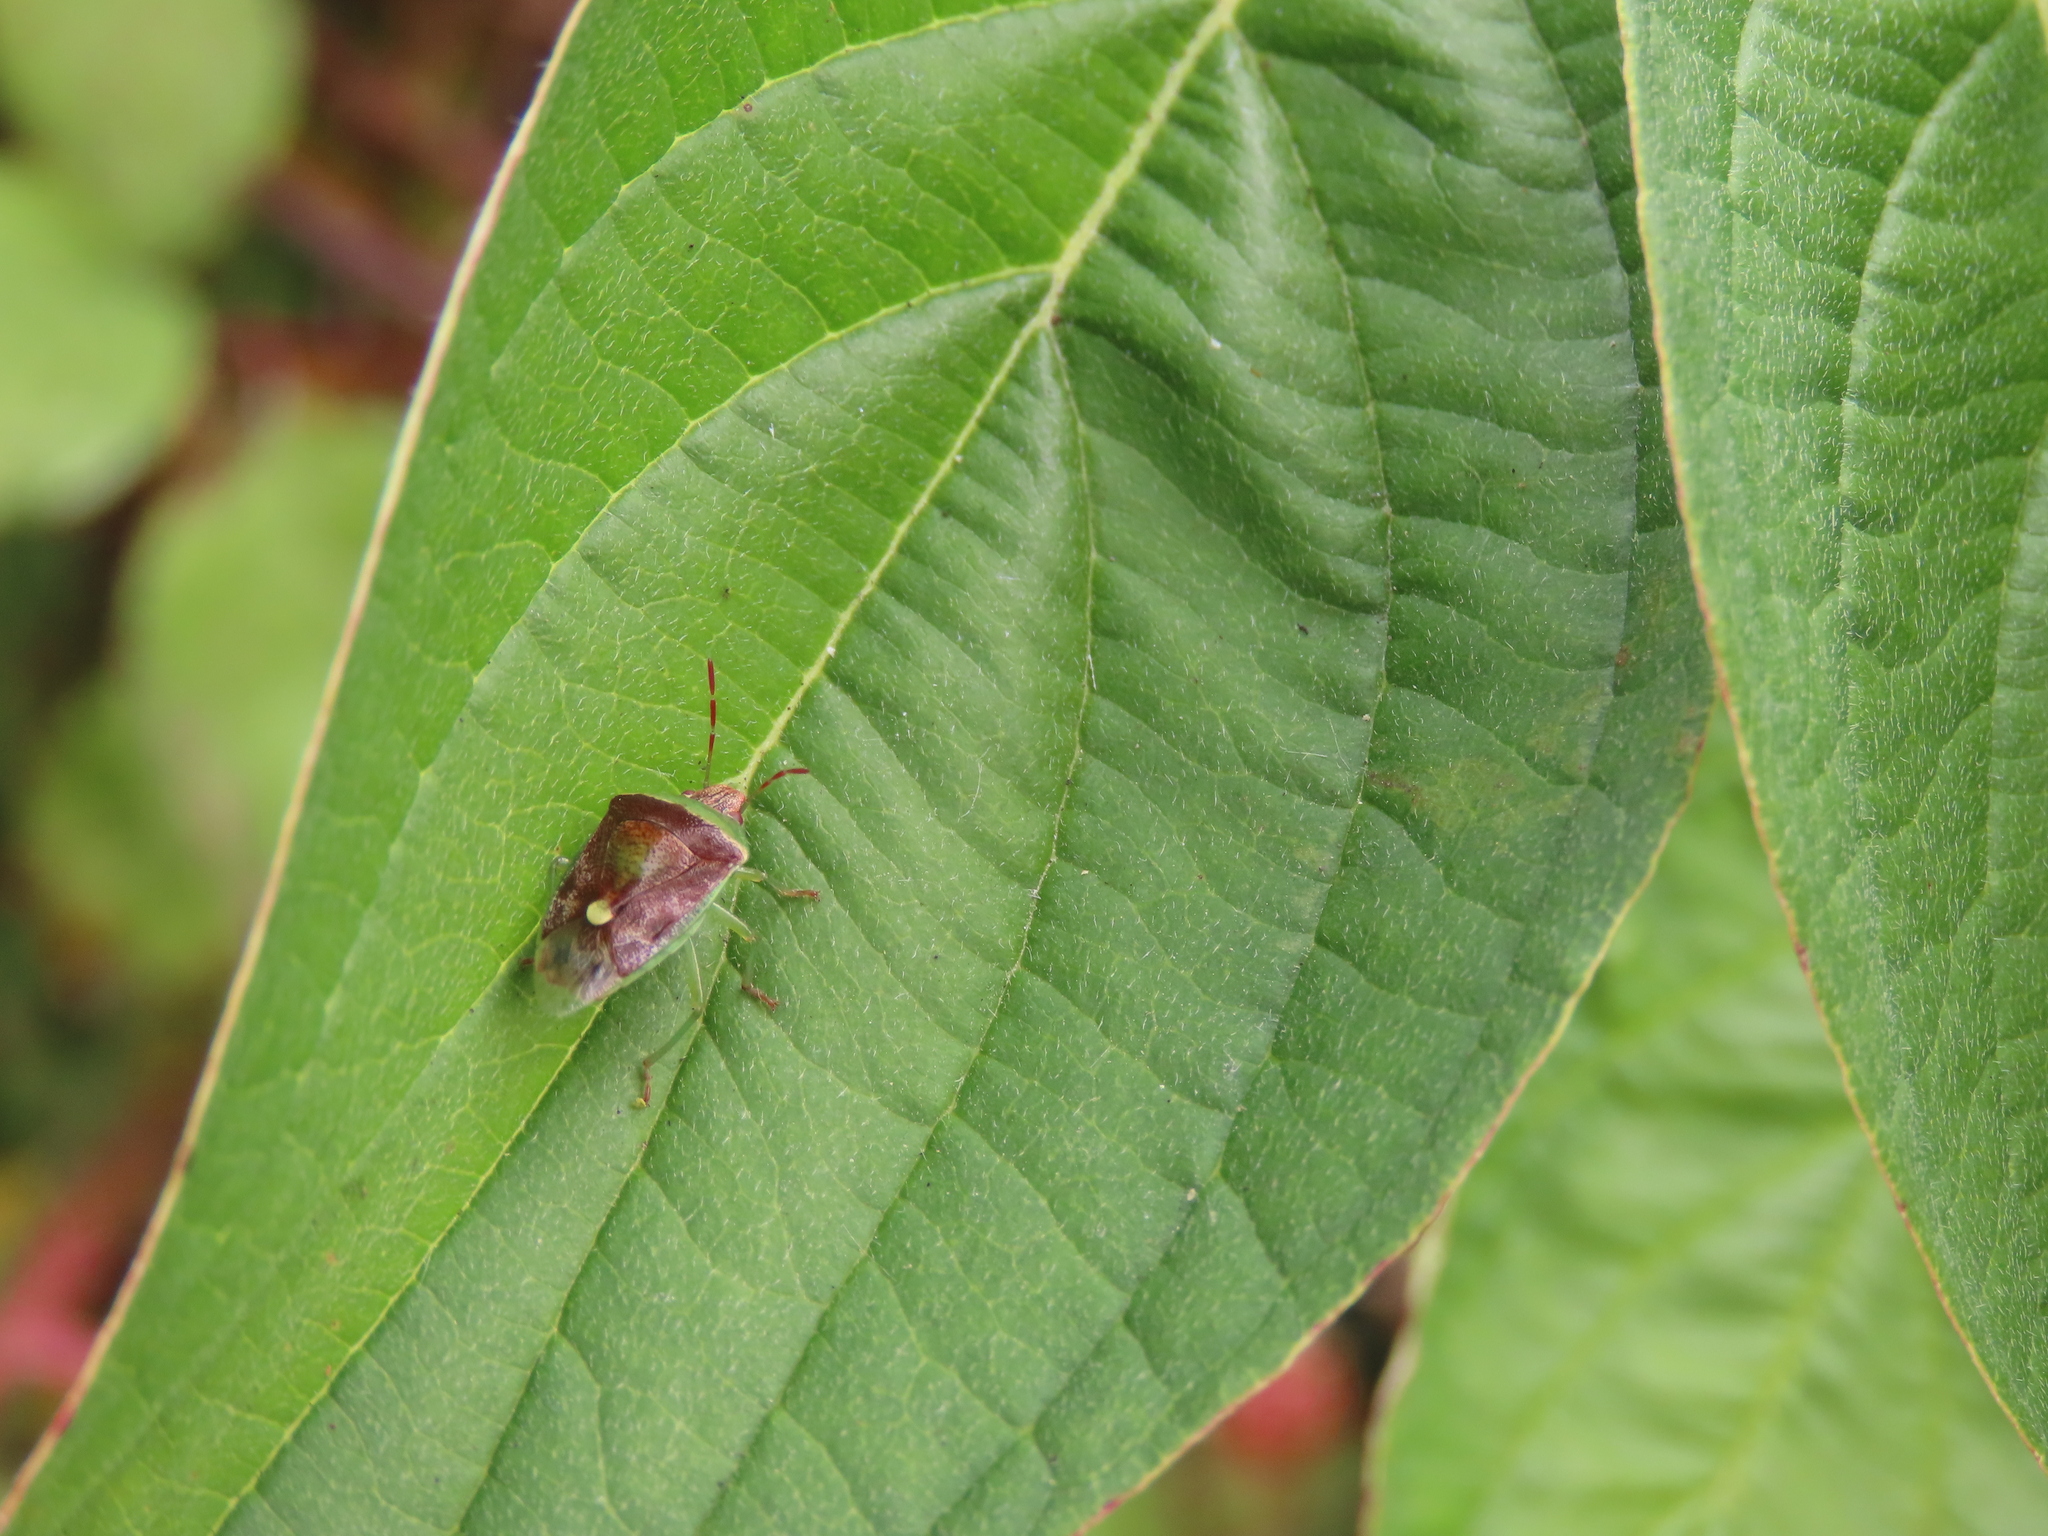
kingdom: Animalia
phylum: Arthropoda
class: Insecta
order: Hemiptera
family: Pentatomidae
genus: Banasa
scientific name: Banasa dimidiata
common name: Green burgundy stink bug
